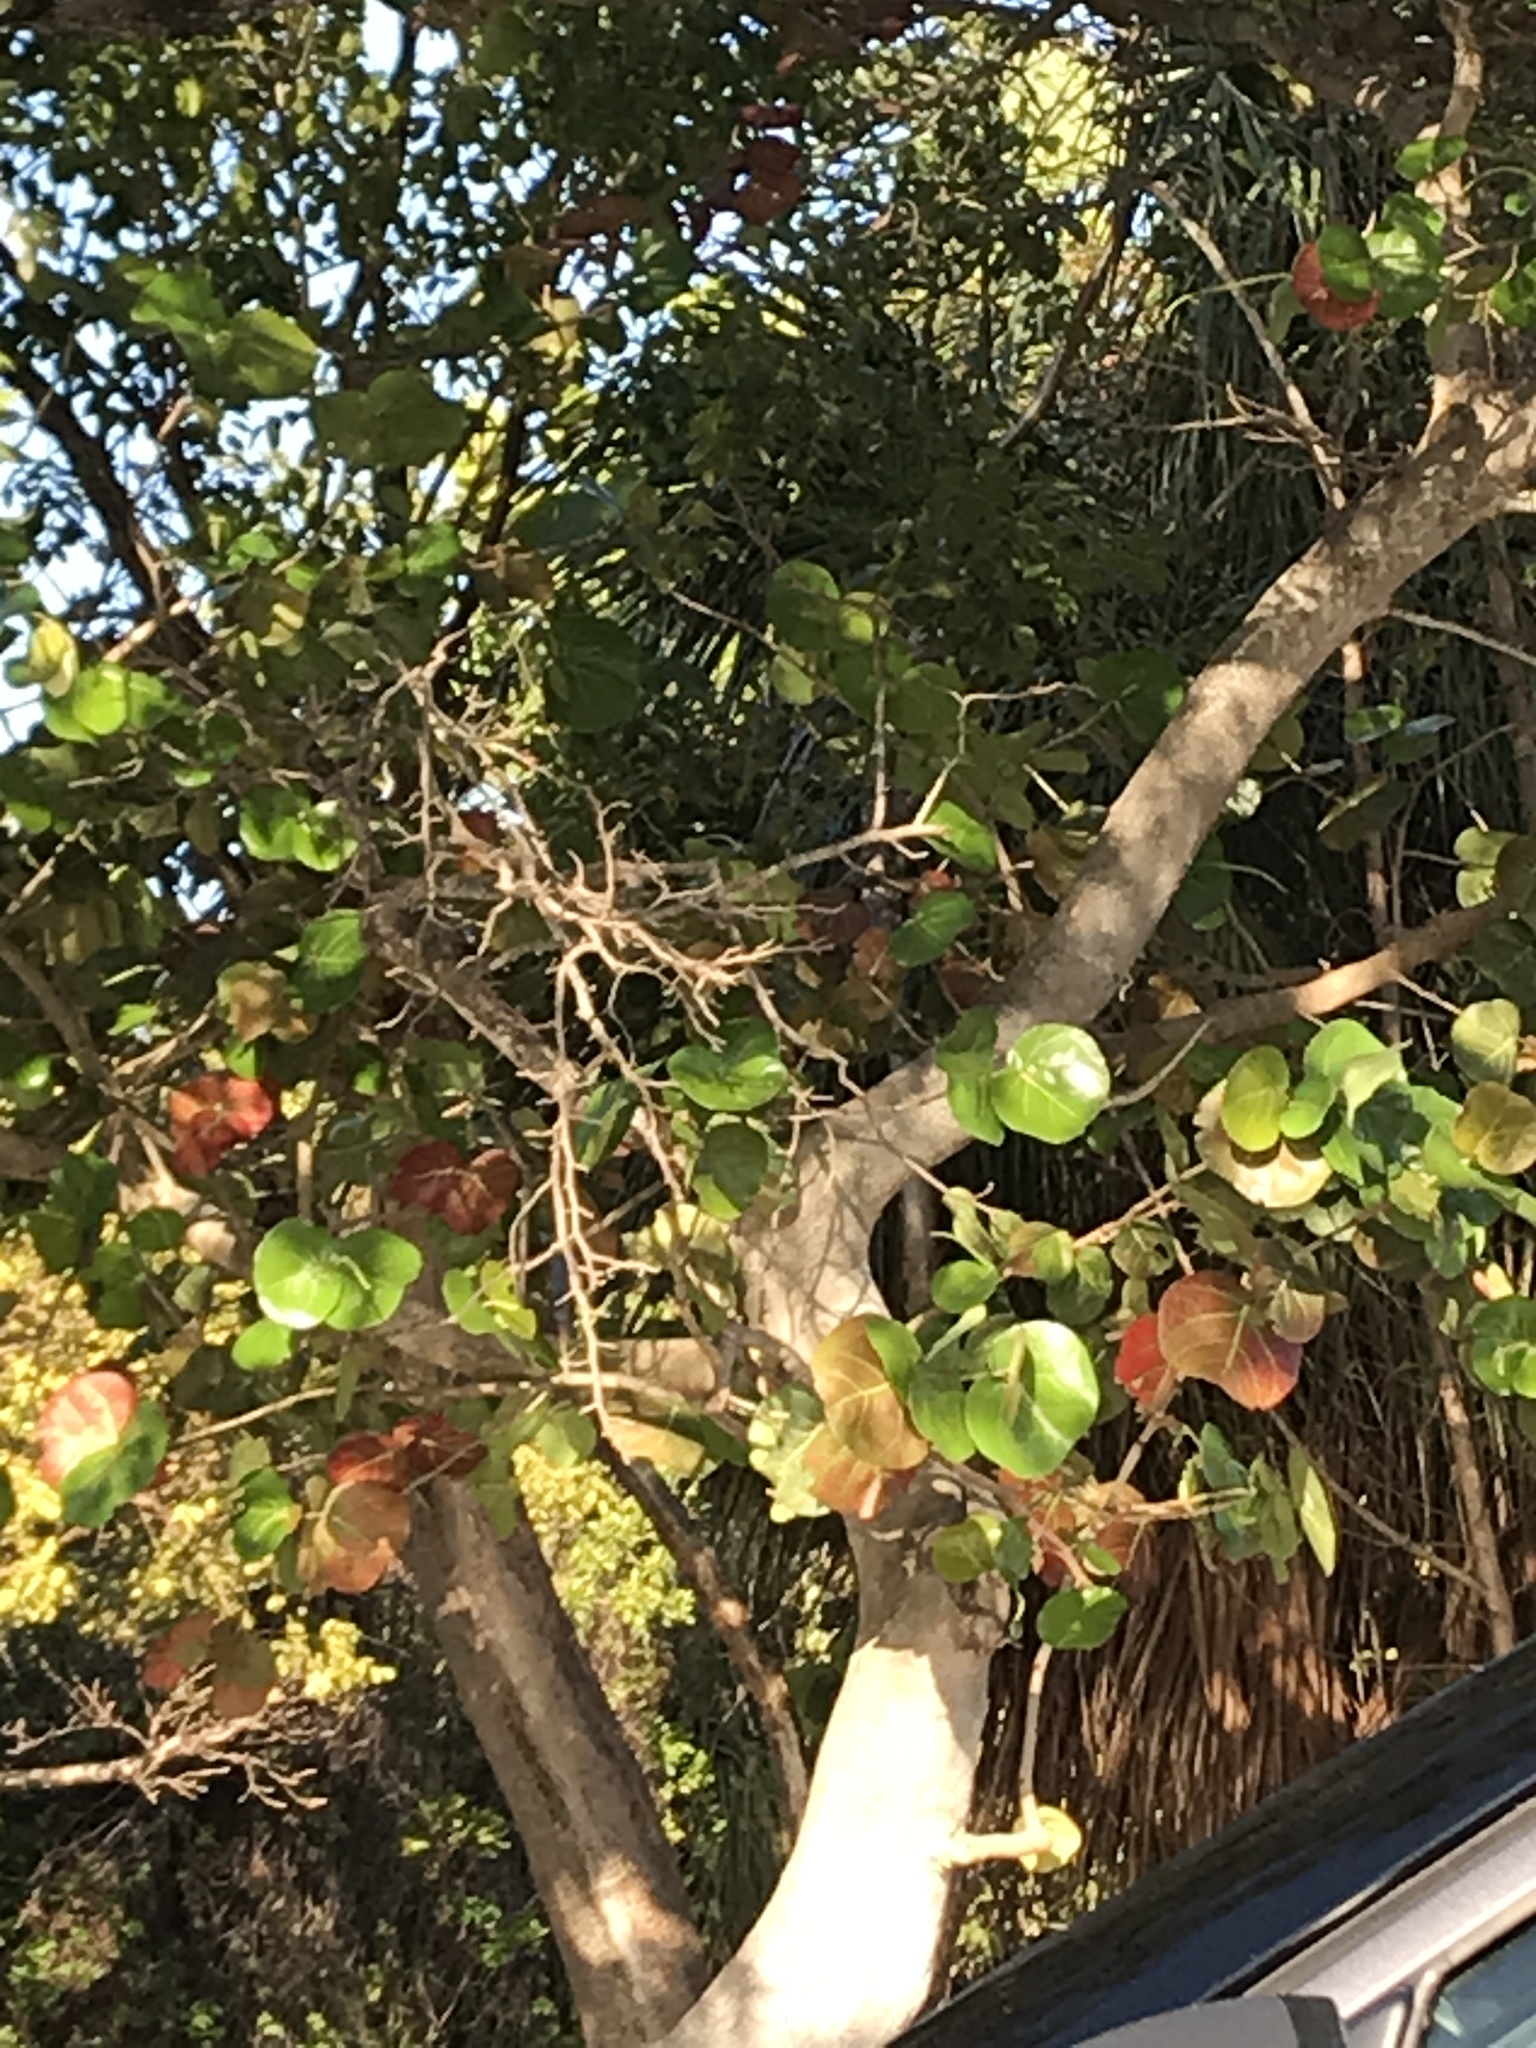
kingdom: Plantae
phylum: Tracheophyta
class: Magnoliopsida
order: Caryophyllales
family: Polygonaceae
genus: Coccoloba
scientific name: Coccoloba uvifera
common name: Seagrape
